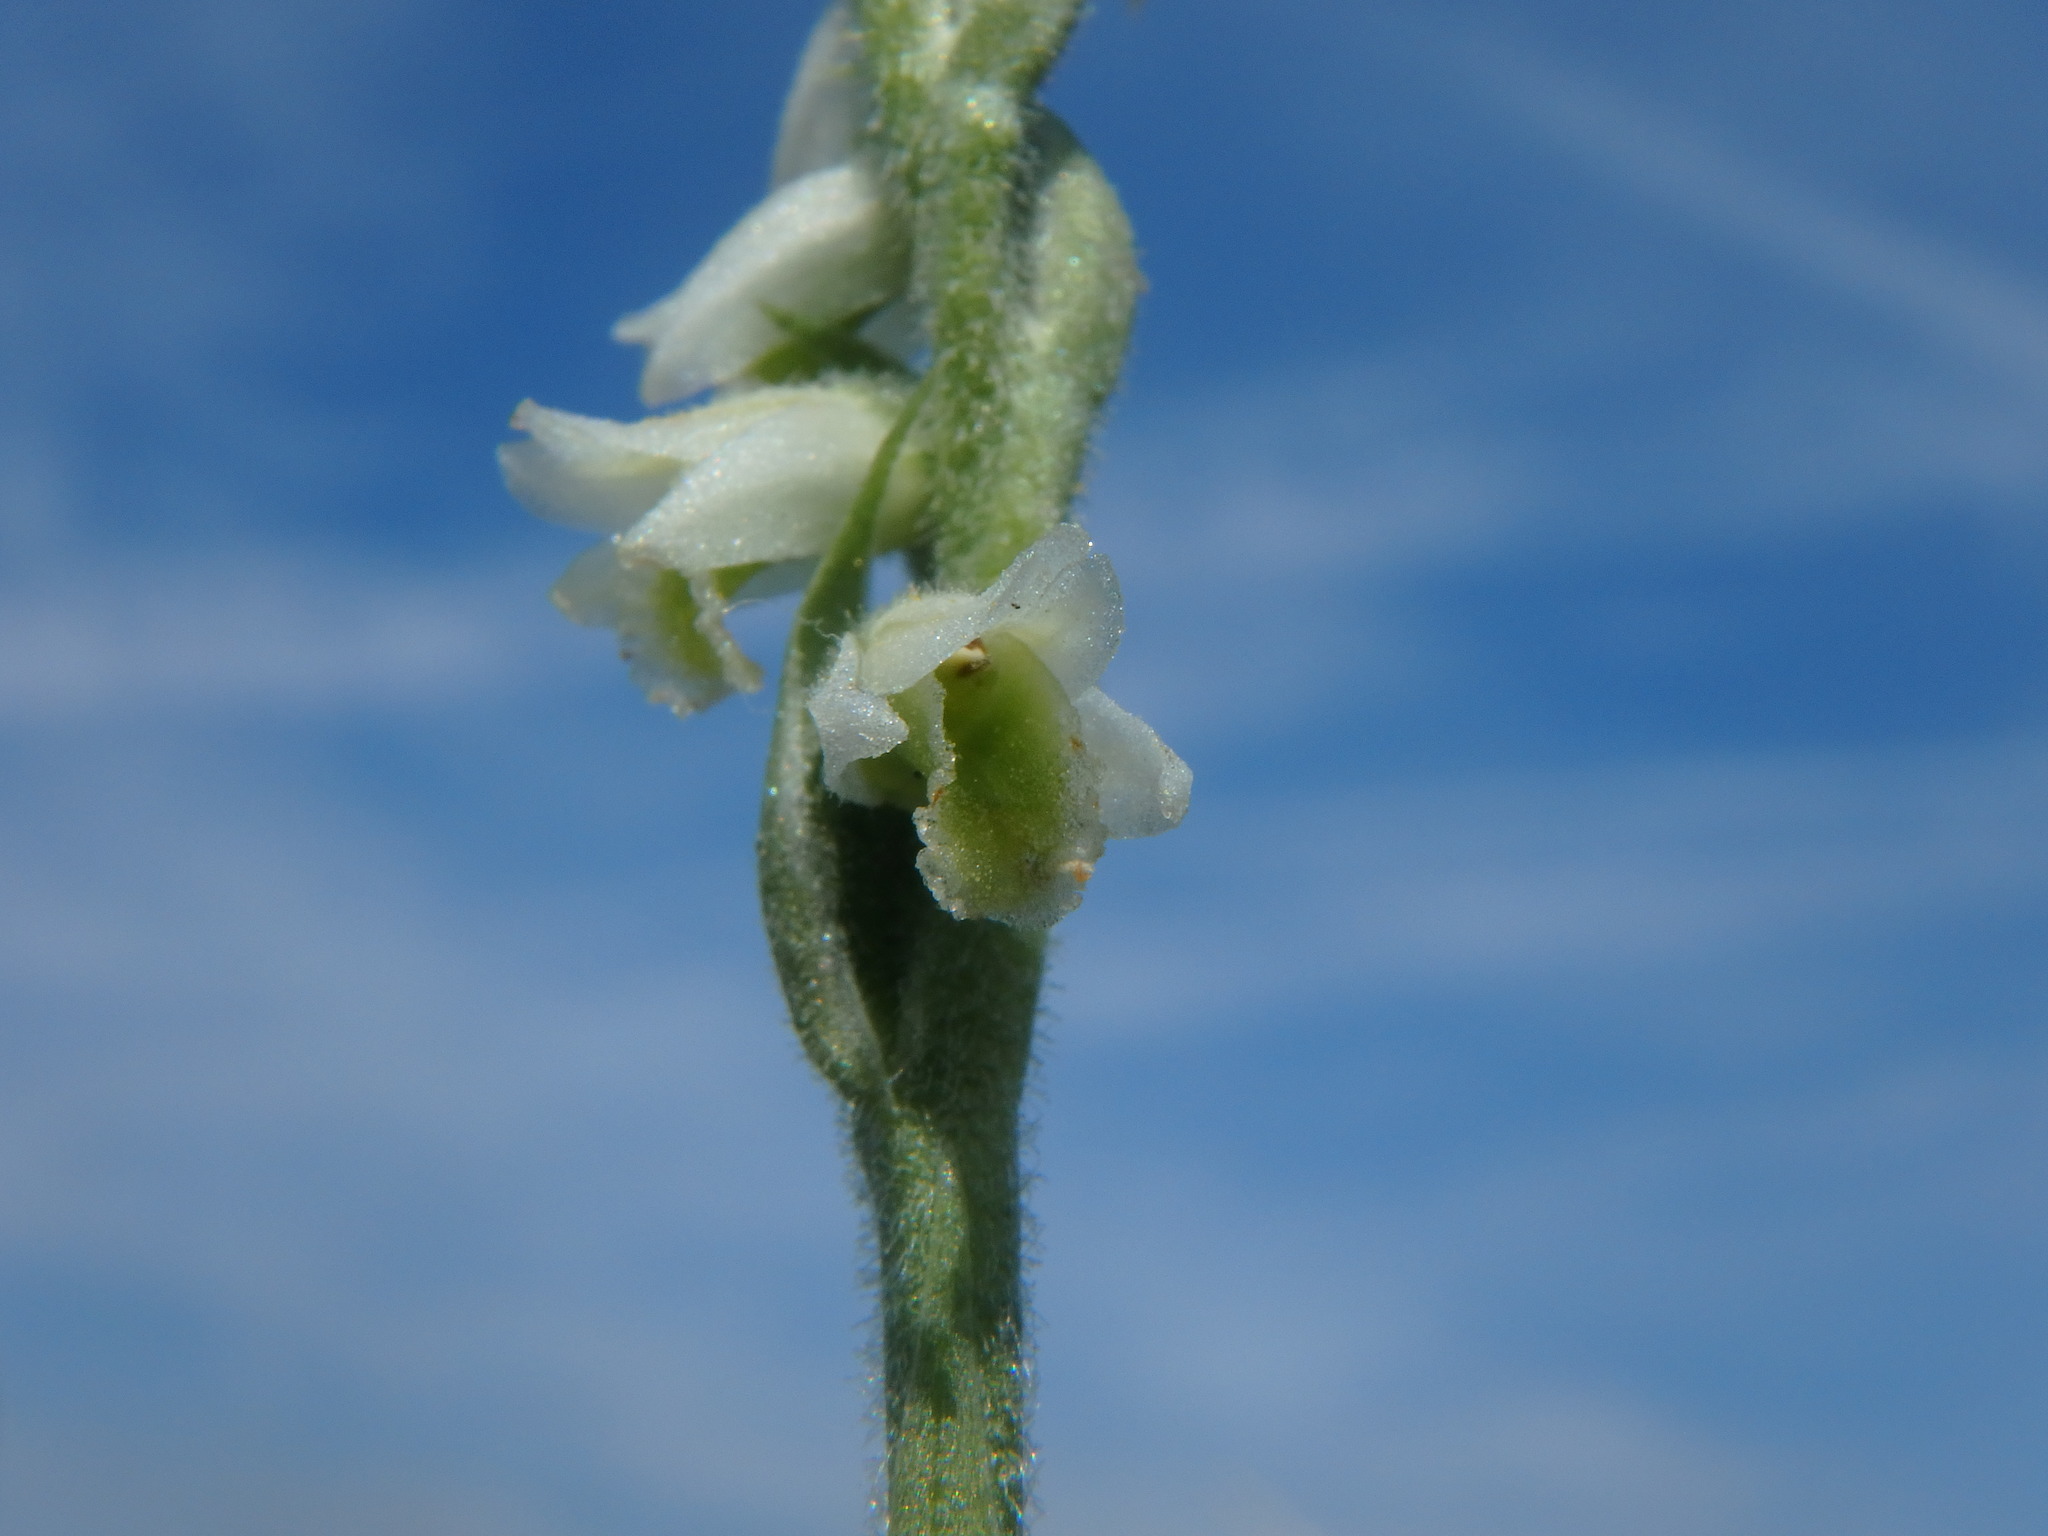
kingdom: Plantae
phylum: Tracheophyta
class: Liliopsida
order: Asparagales
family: Orchidaceae
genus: Spiranthes
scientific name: Spiranthes spiralis
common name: Autumn lady's-tresses
